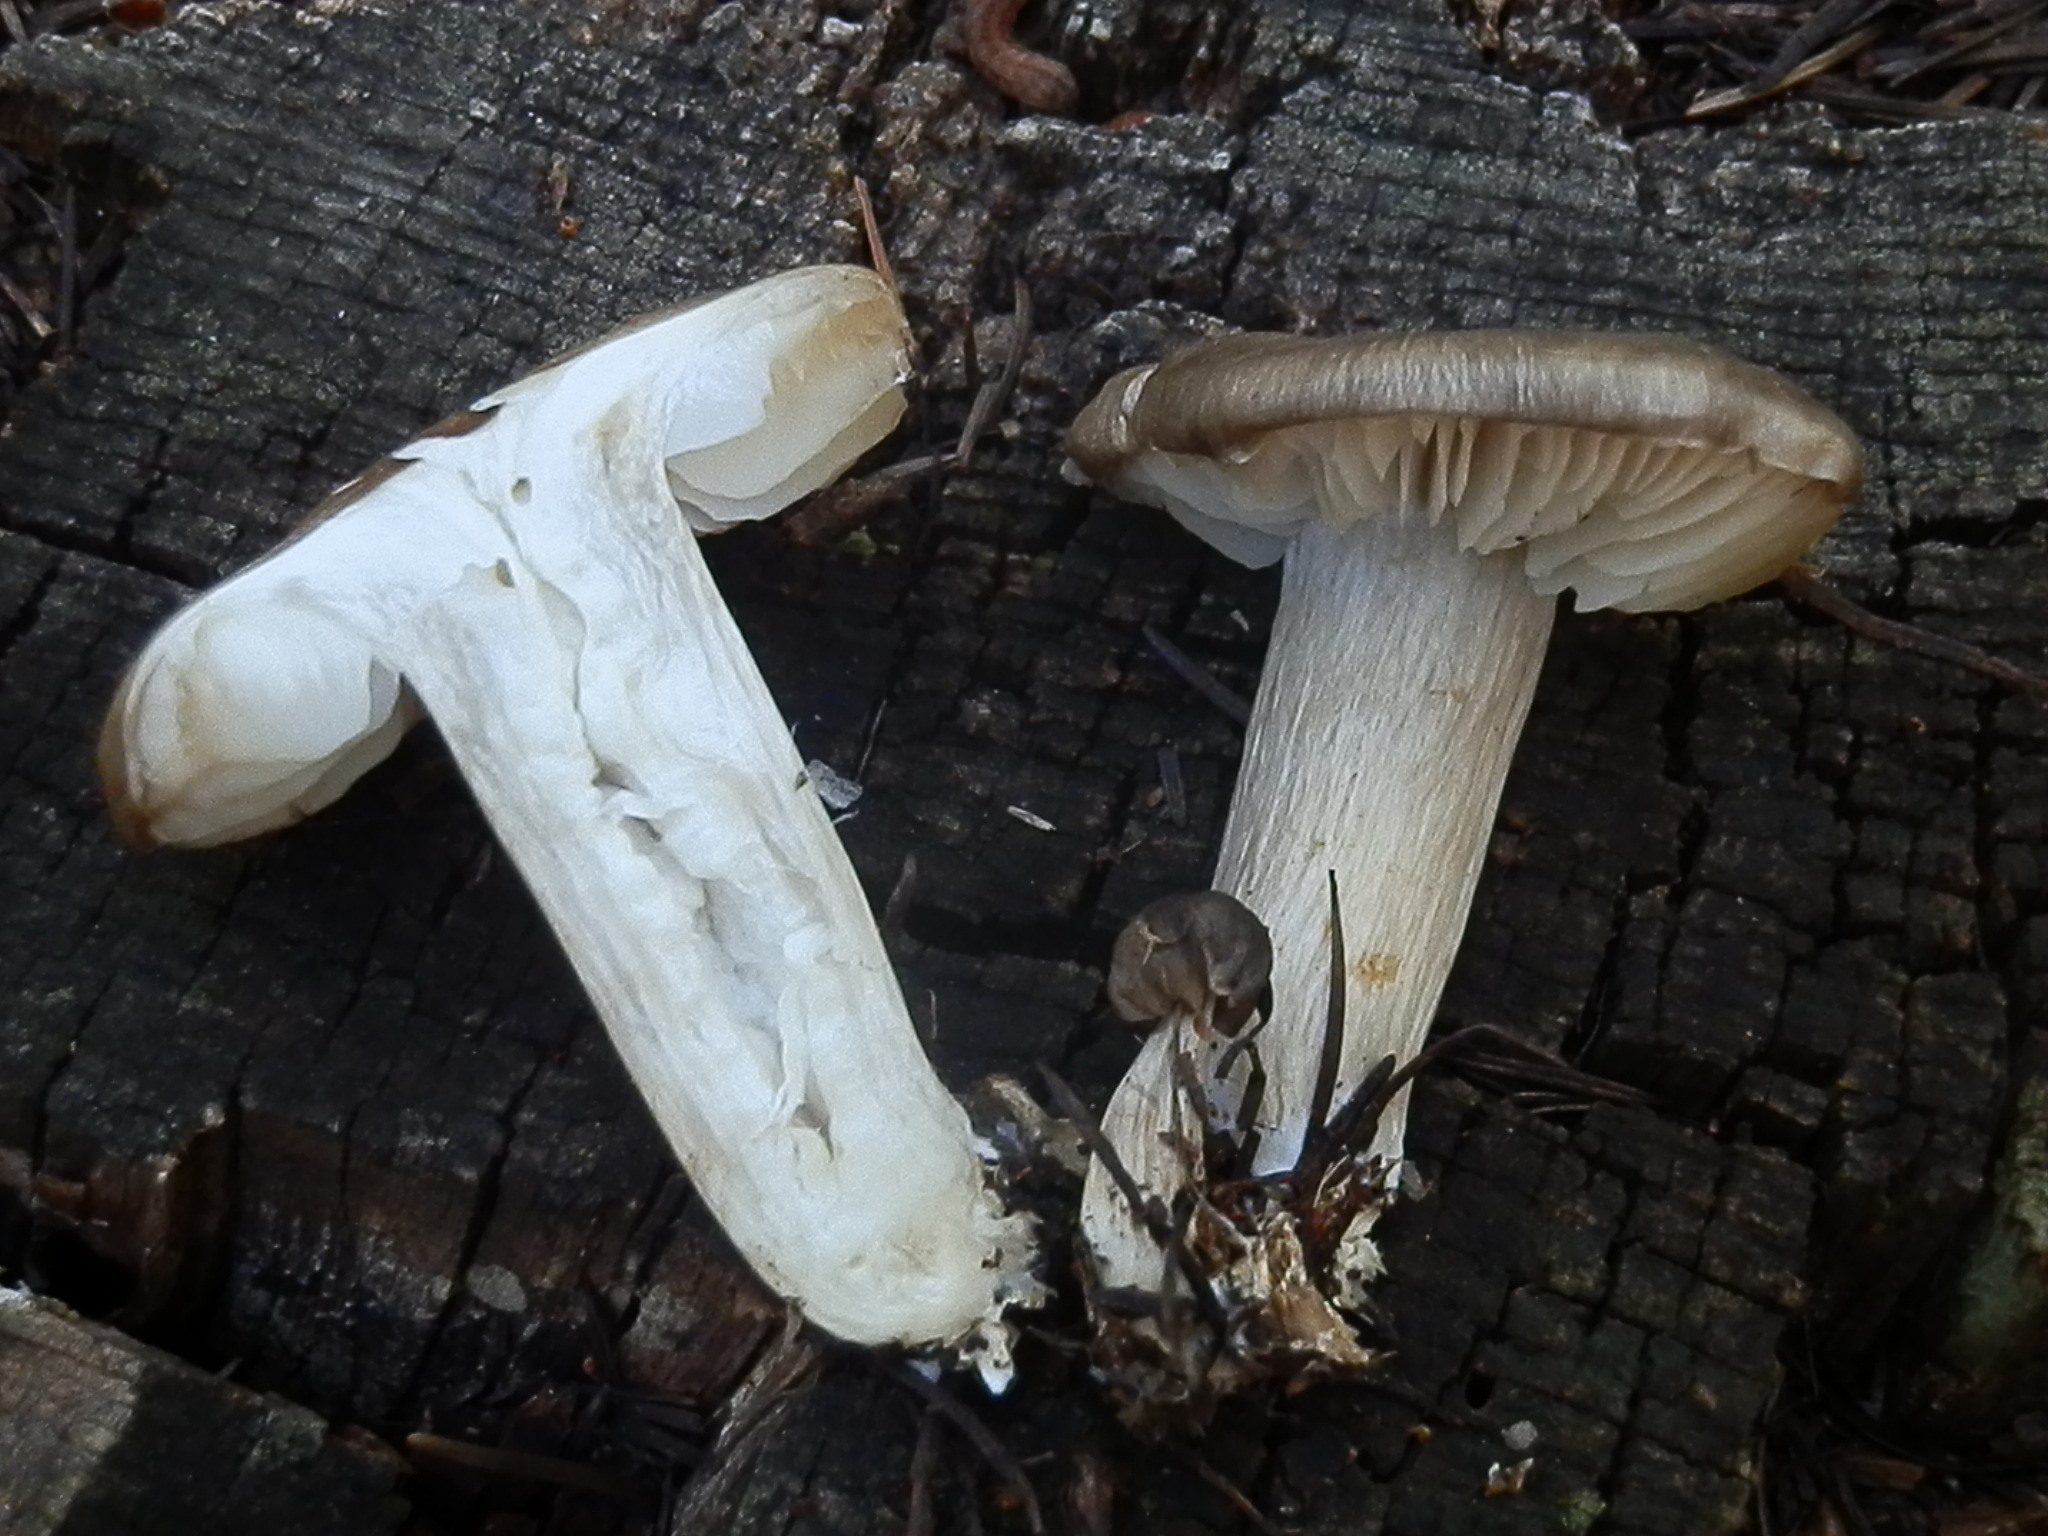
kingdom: Fungi
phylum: Basidiomycota
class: Agaricomycetes
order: Agaricales
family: Tricholomataceae
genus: Megacollybia
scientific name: Megacollybia fallax
